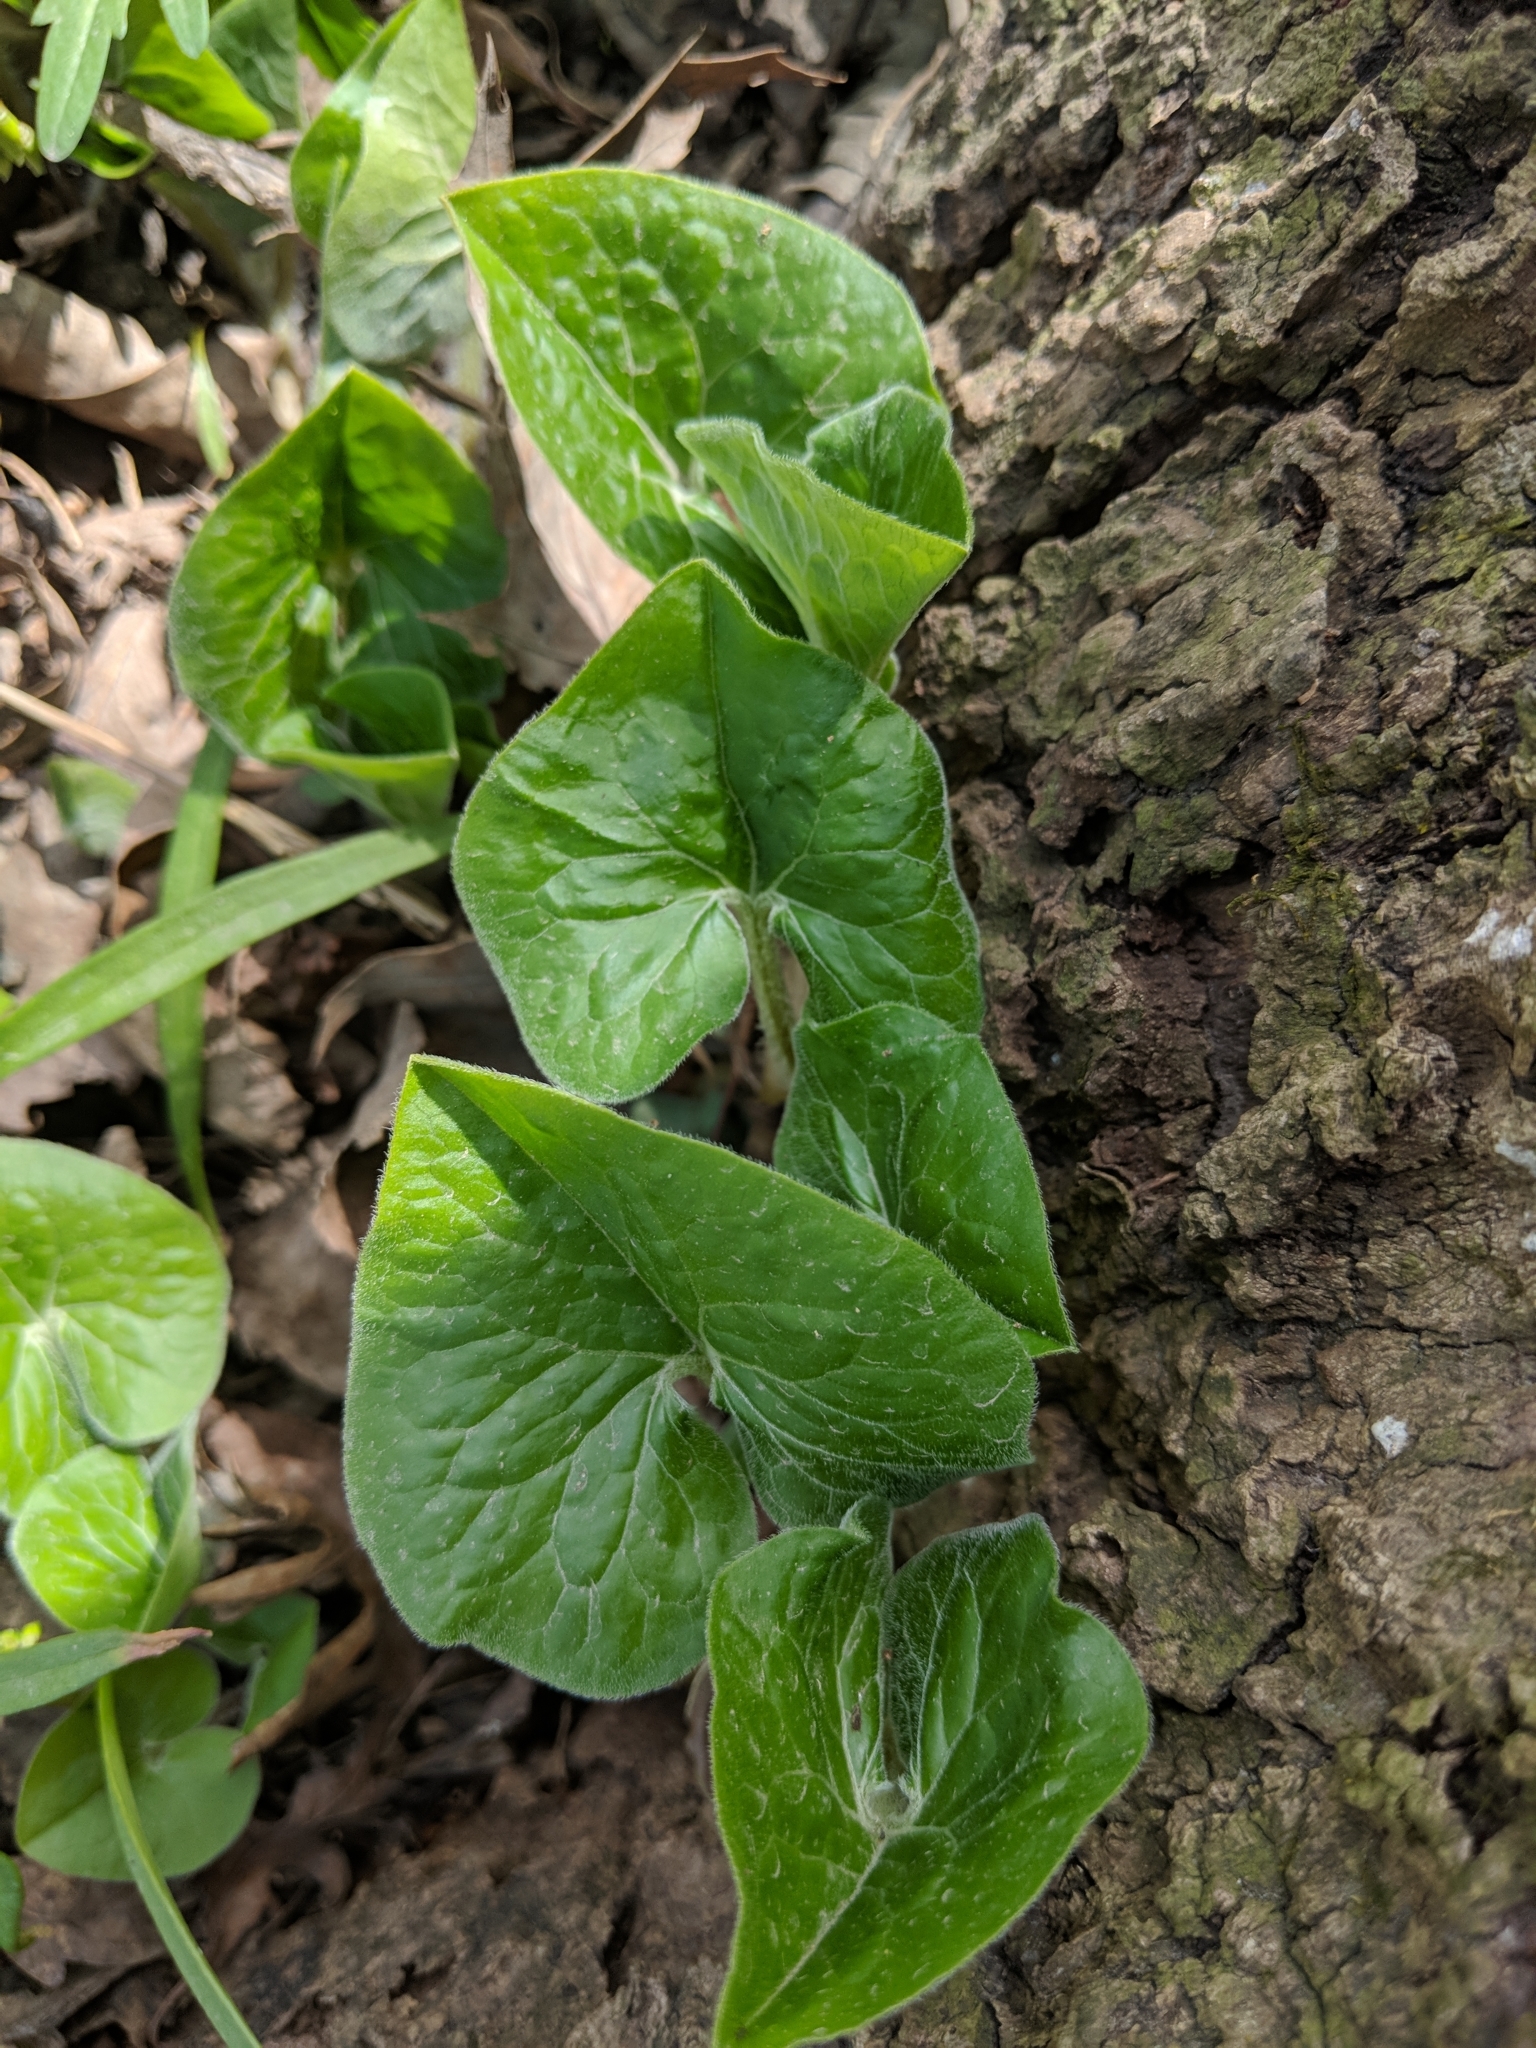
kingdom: Plantae
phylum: Tracheophyta
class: Magnoliopsida
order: Piperales
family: Aristolochiaceae
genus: Asarum
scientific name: Asarum canadense
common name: Wild ginger
